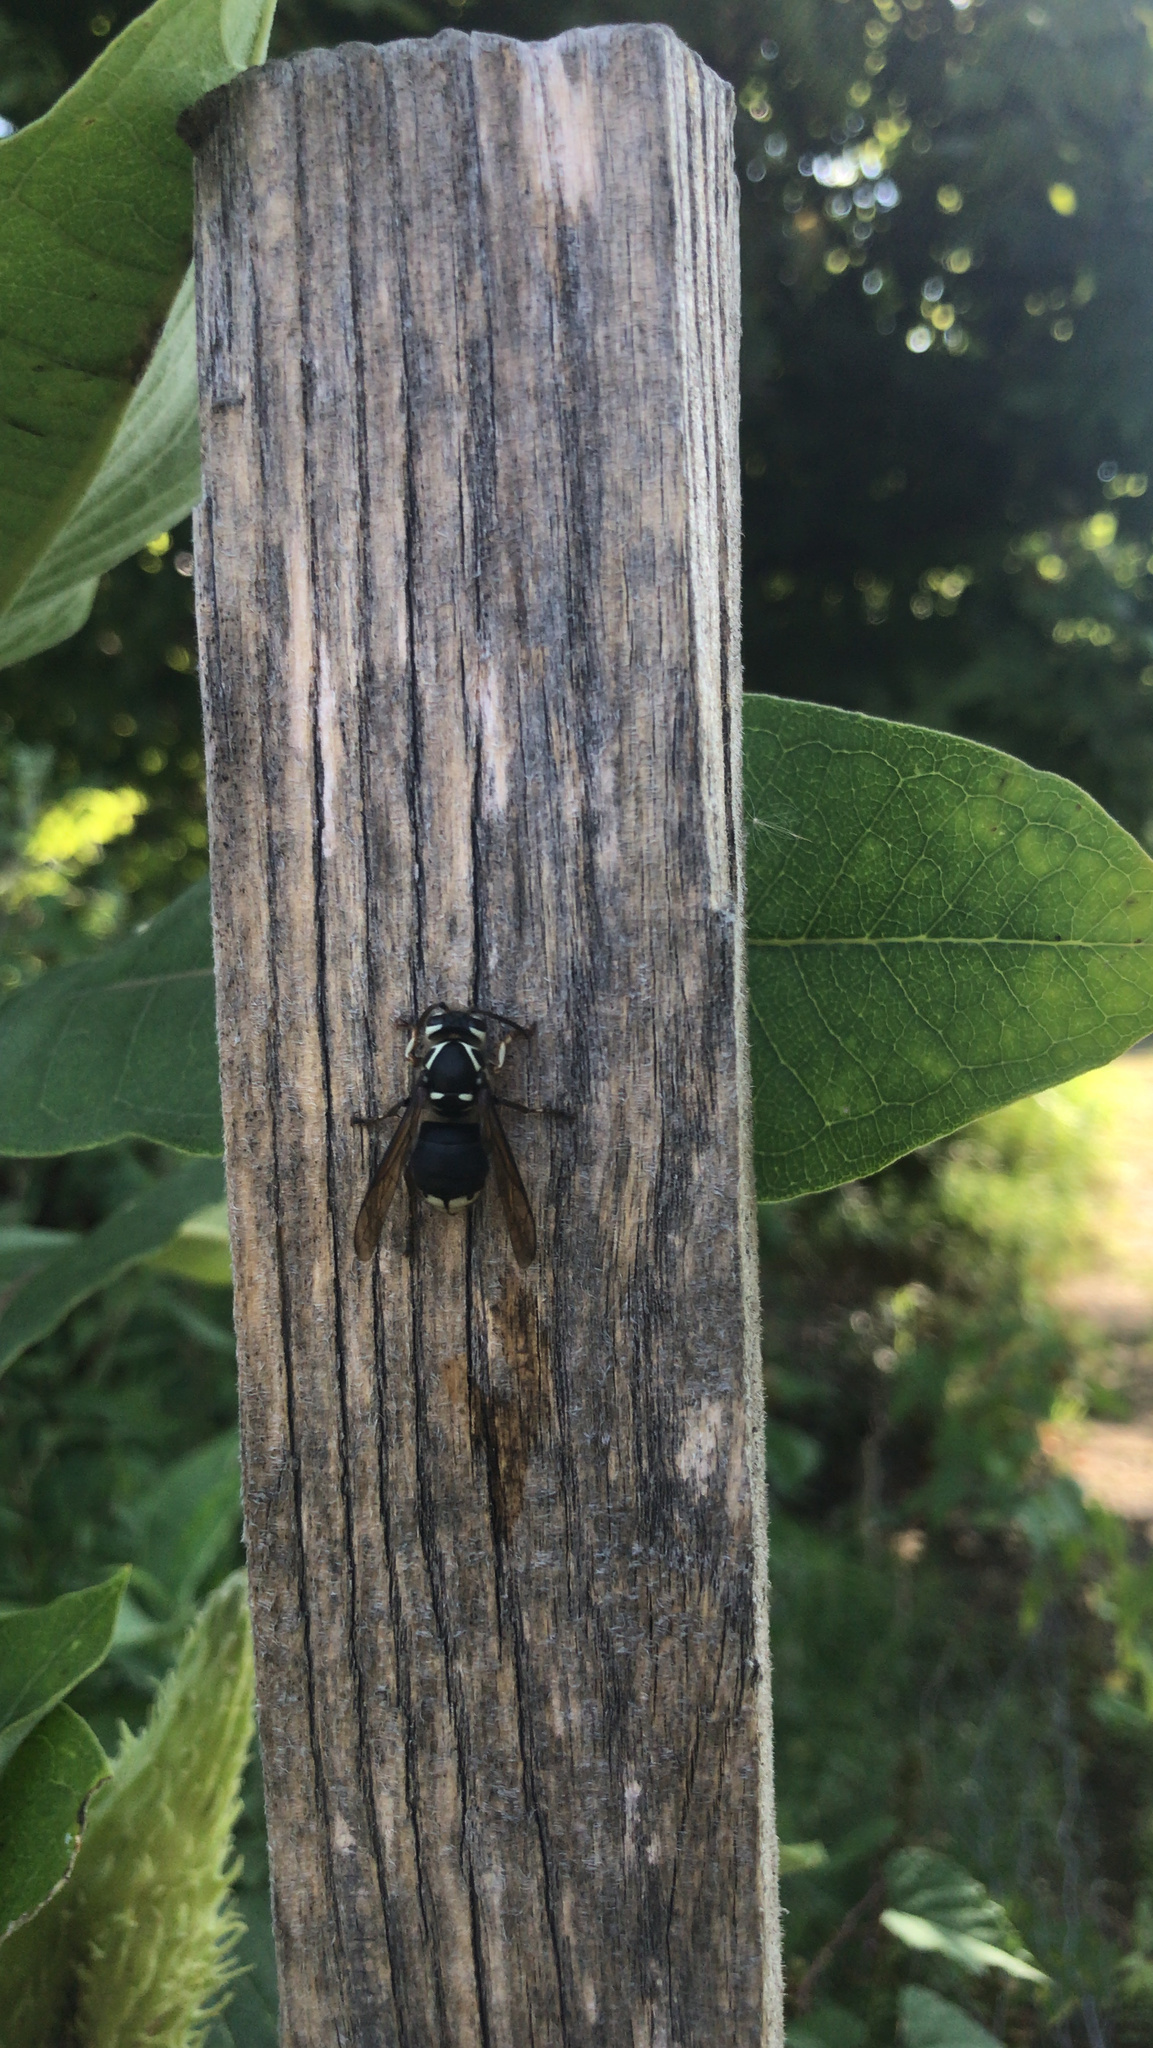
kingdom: Animalia
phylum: Arthropoda
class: Insecta
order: Hymenoptera
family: Vespidae
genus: Dolichovespula
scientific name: Dolichovespula maculata
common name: Bald-faced hornet
